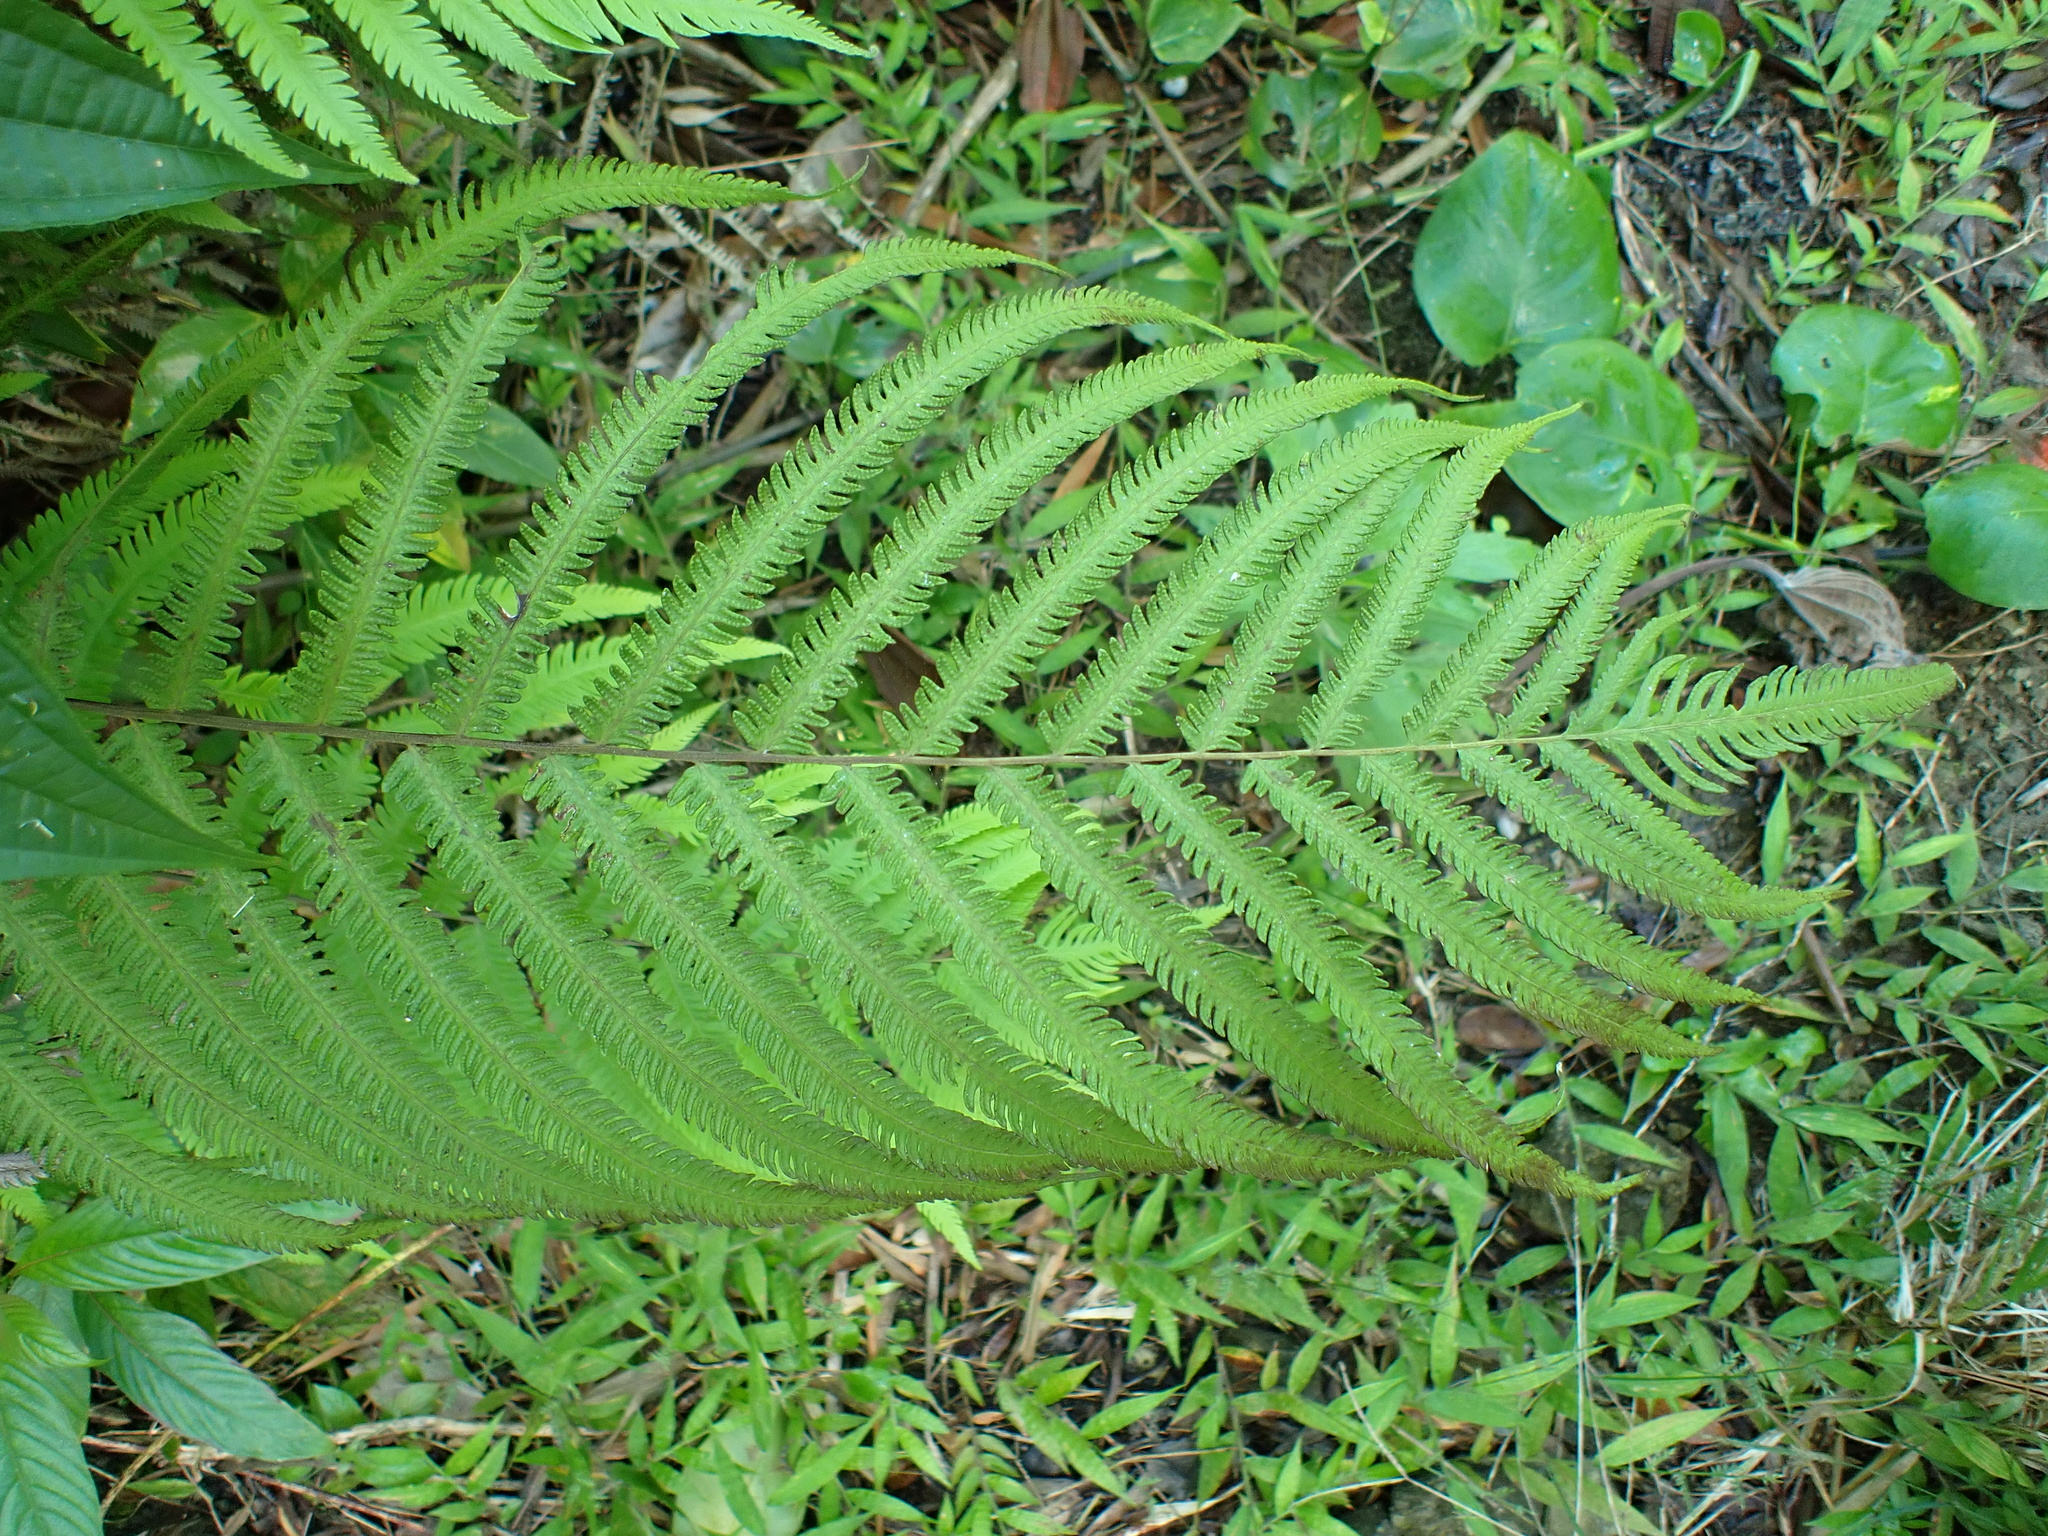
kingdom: Plantae
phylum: Tracheophyta
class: Polypodiopsida
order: Polypodiales
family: Thelypteridaceae
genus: Amblovenatum
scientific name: Amblovenatum opulentum
